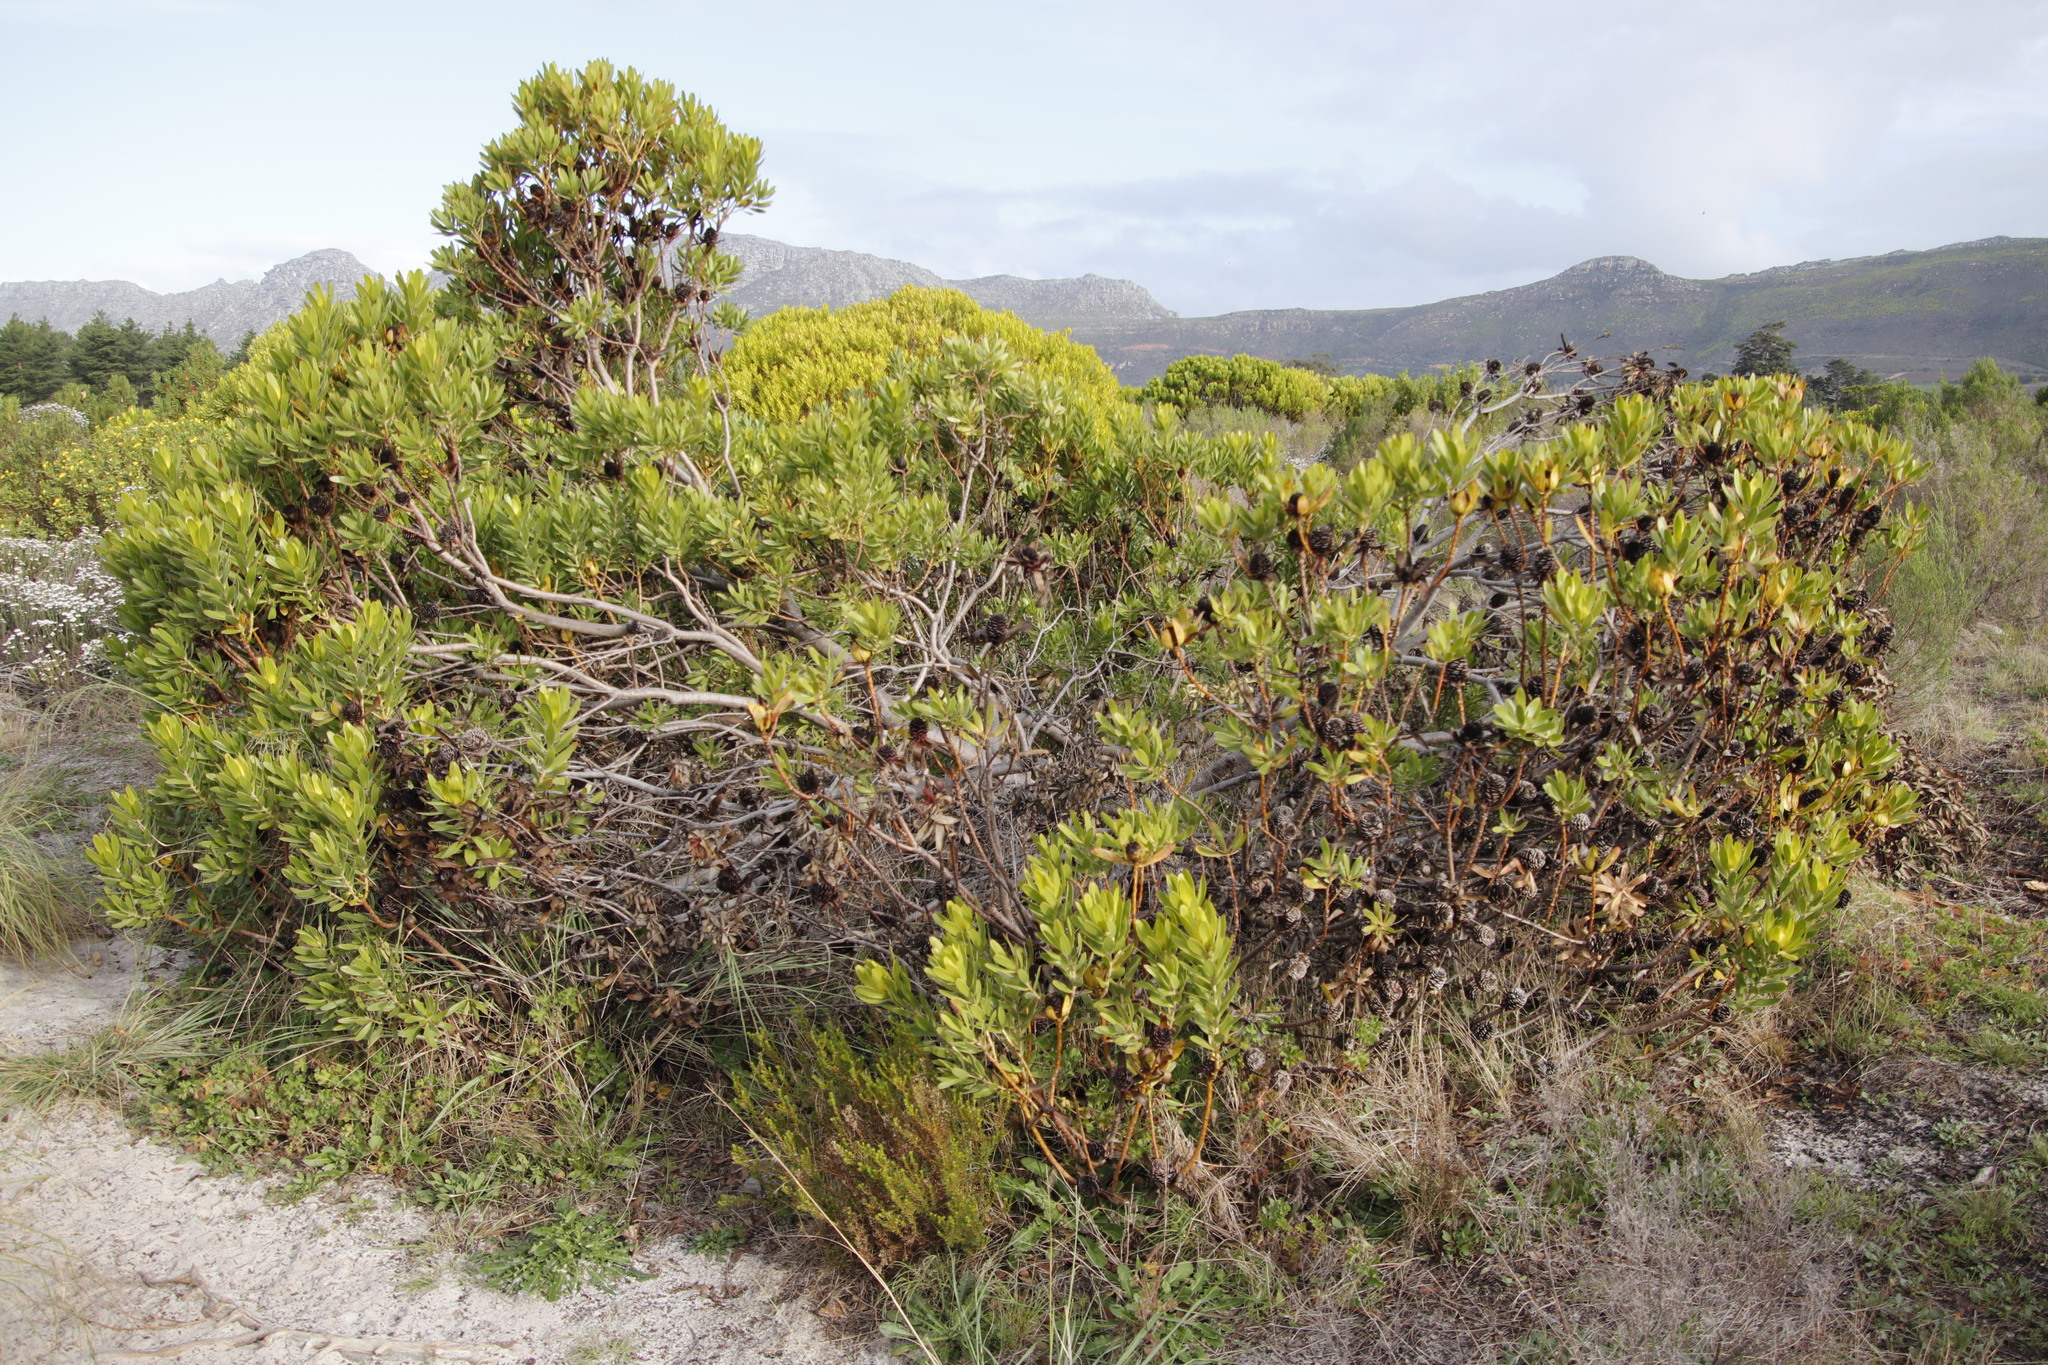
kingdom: Plantae
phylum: Tracheophyta
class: Magnoliopsida
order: Proteales
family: Proteaceae
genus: Leucadendron
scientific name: Leucadendron laureolum
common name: Golden sunshinebush
